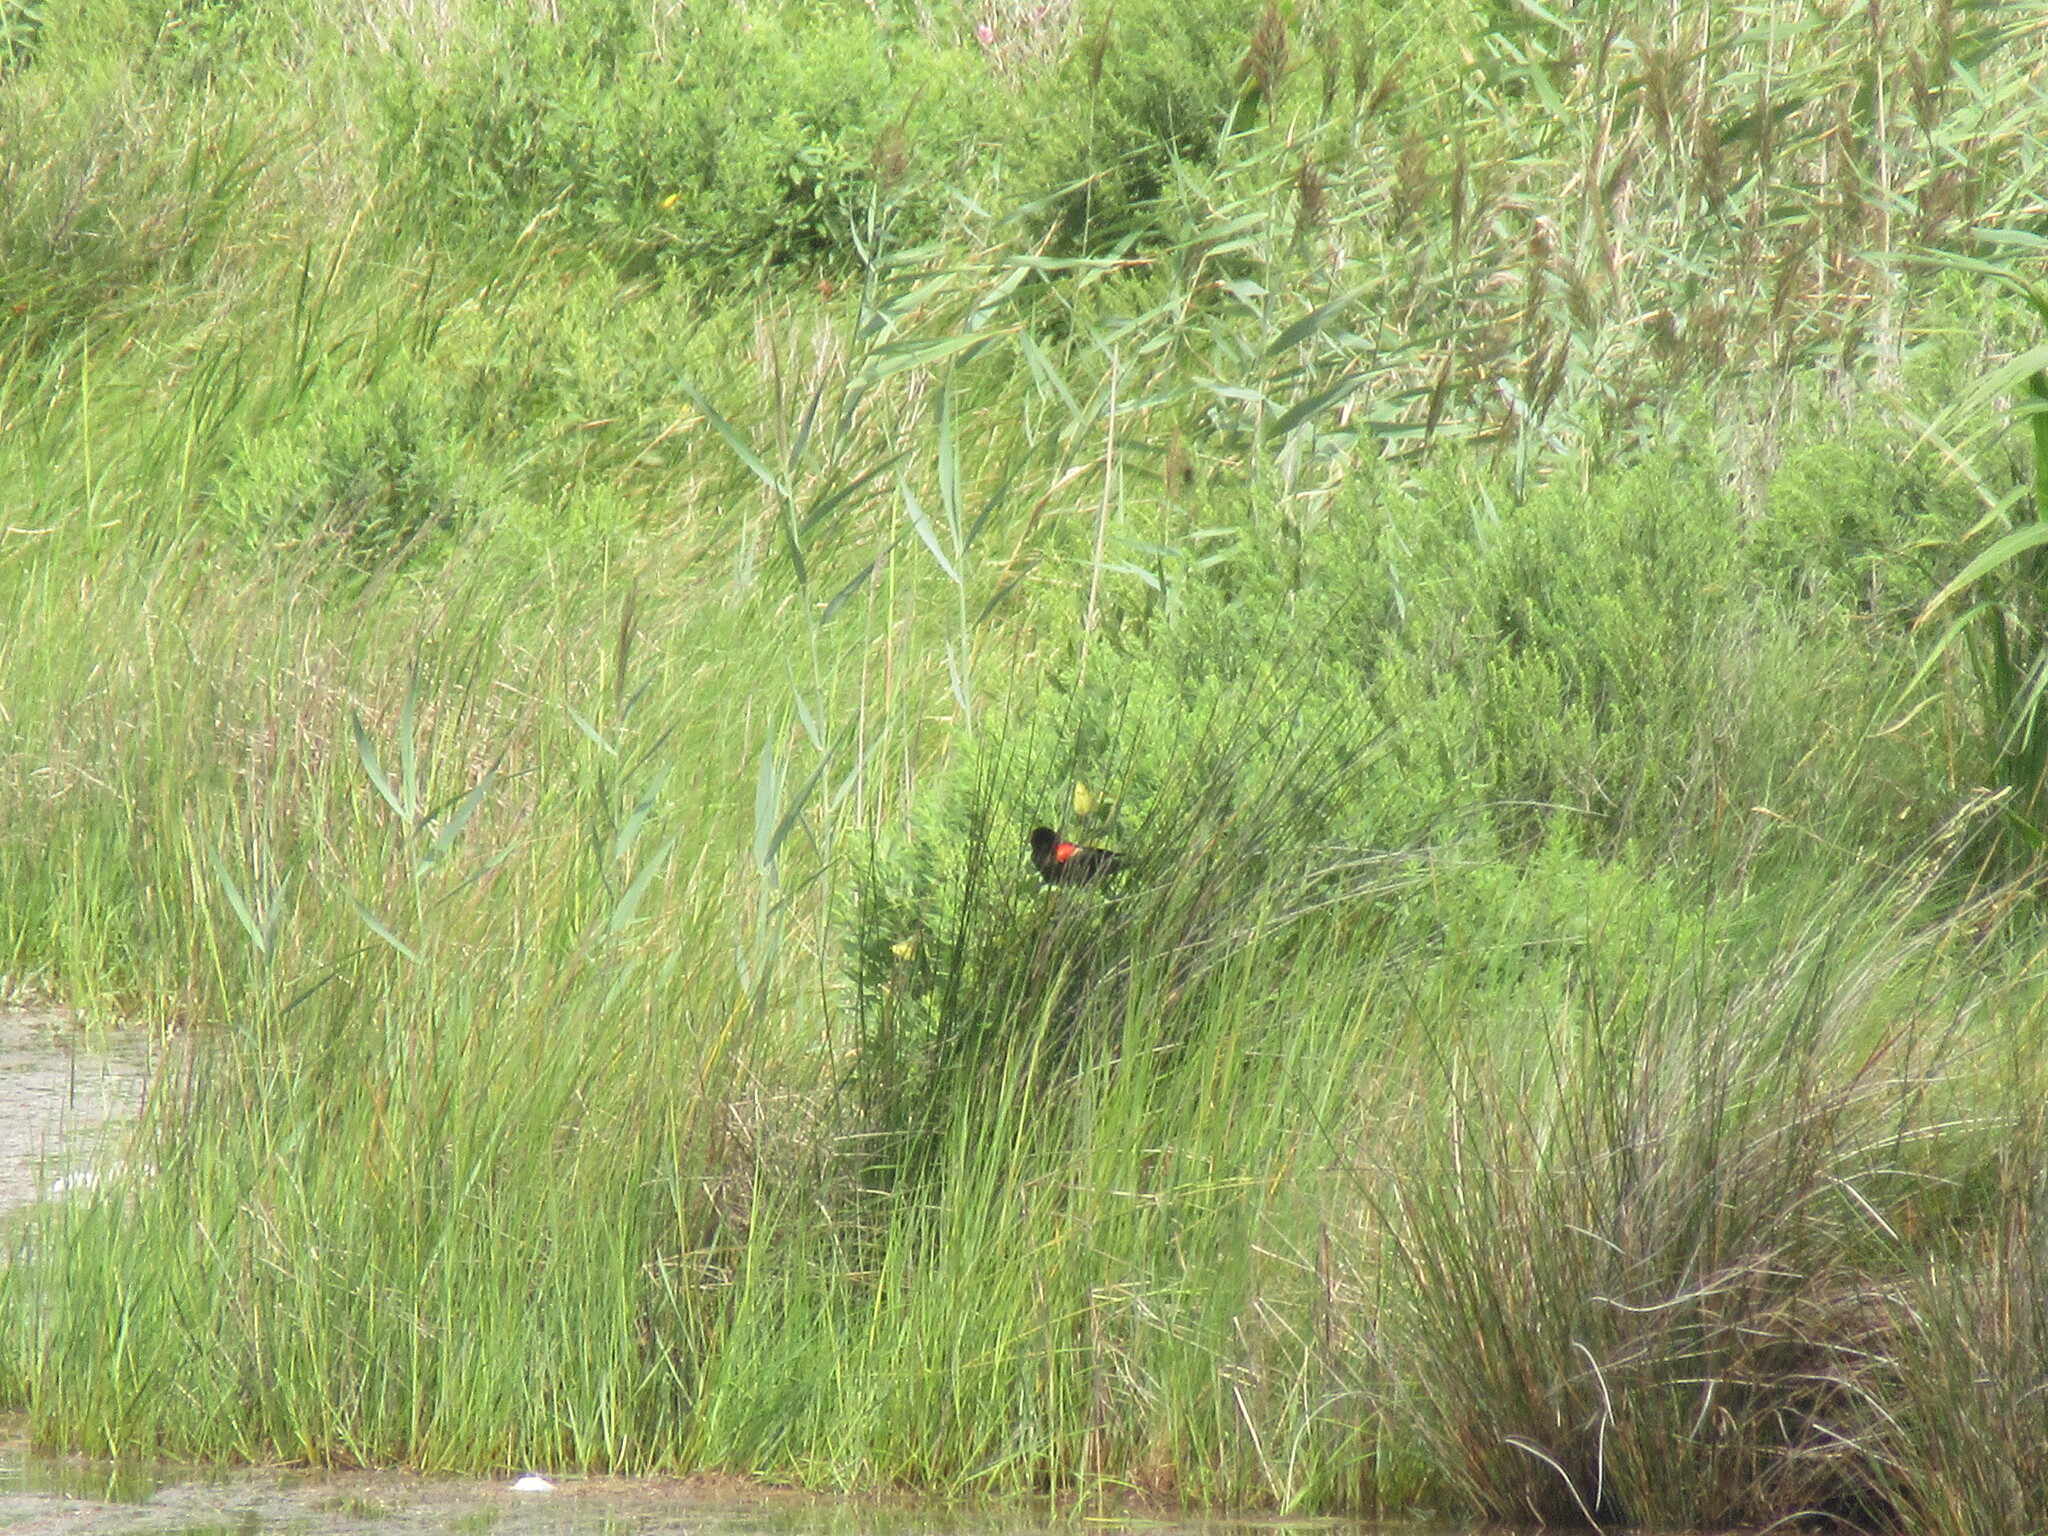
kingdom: Animalia
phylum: Chordata
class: Aves
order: Passeriformes
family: Icteridae
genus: Agelaius
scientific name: Agelaius phoeniceus
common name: Red-winged blackbird
